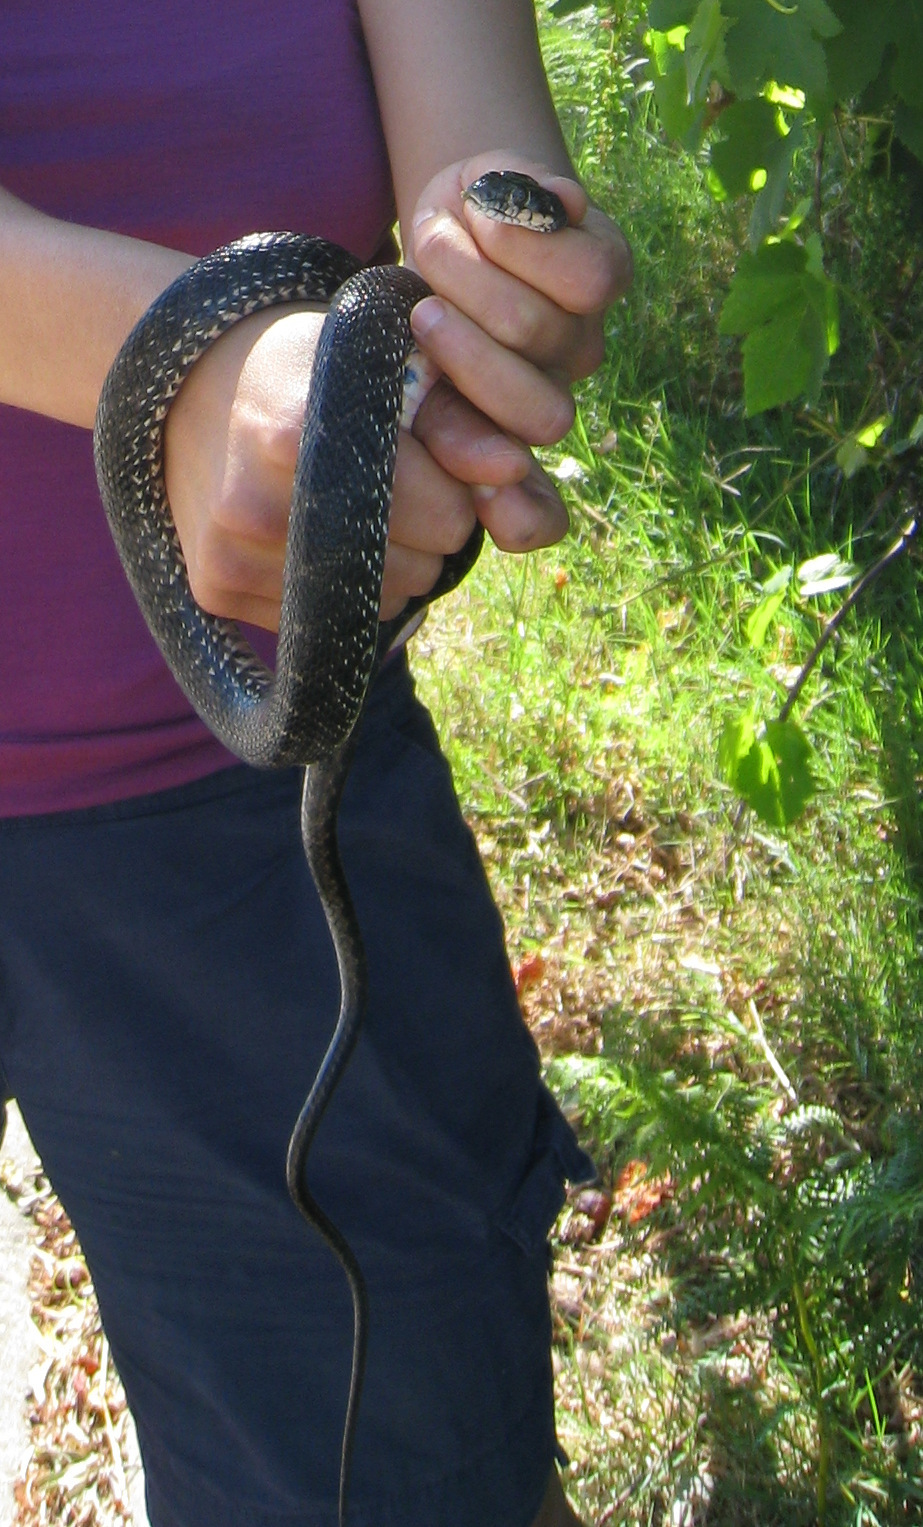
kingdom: Animalia
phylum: Chordata
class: Squamata
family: Colubridae
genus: Hemorrhois
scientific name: Hemorrhois hippocrepis
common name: Horseshoe whip snake
